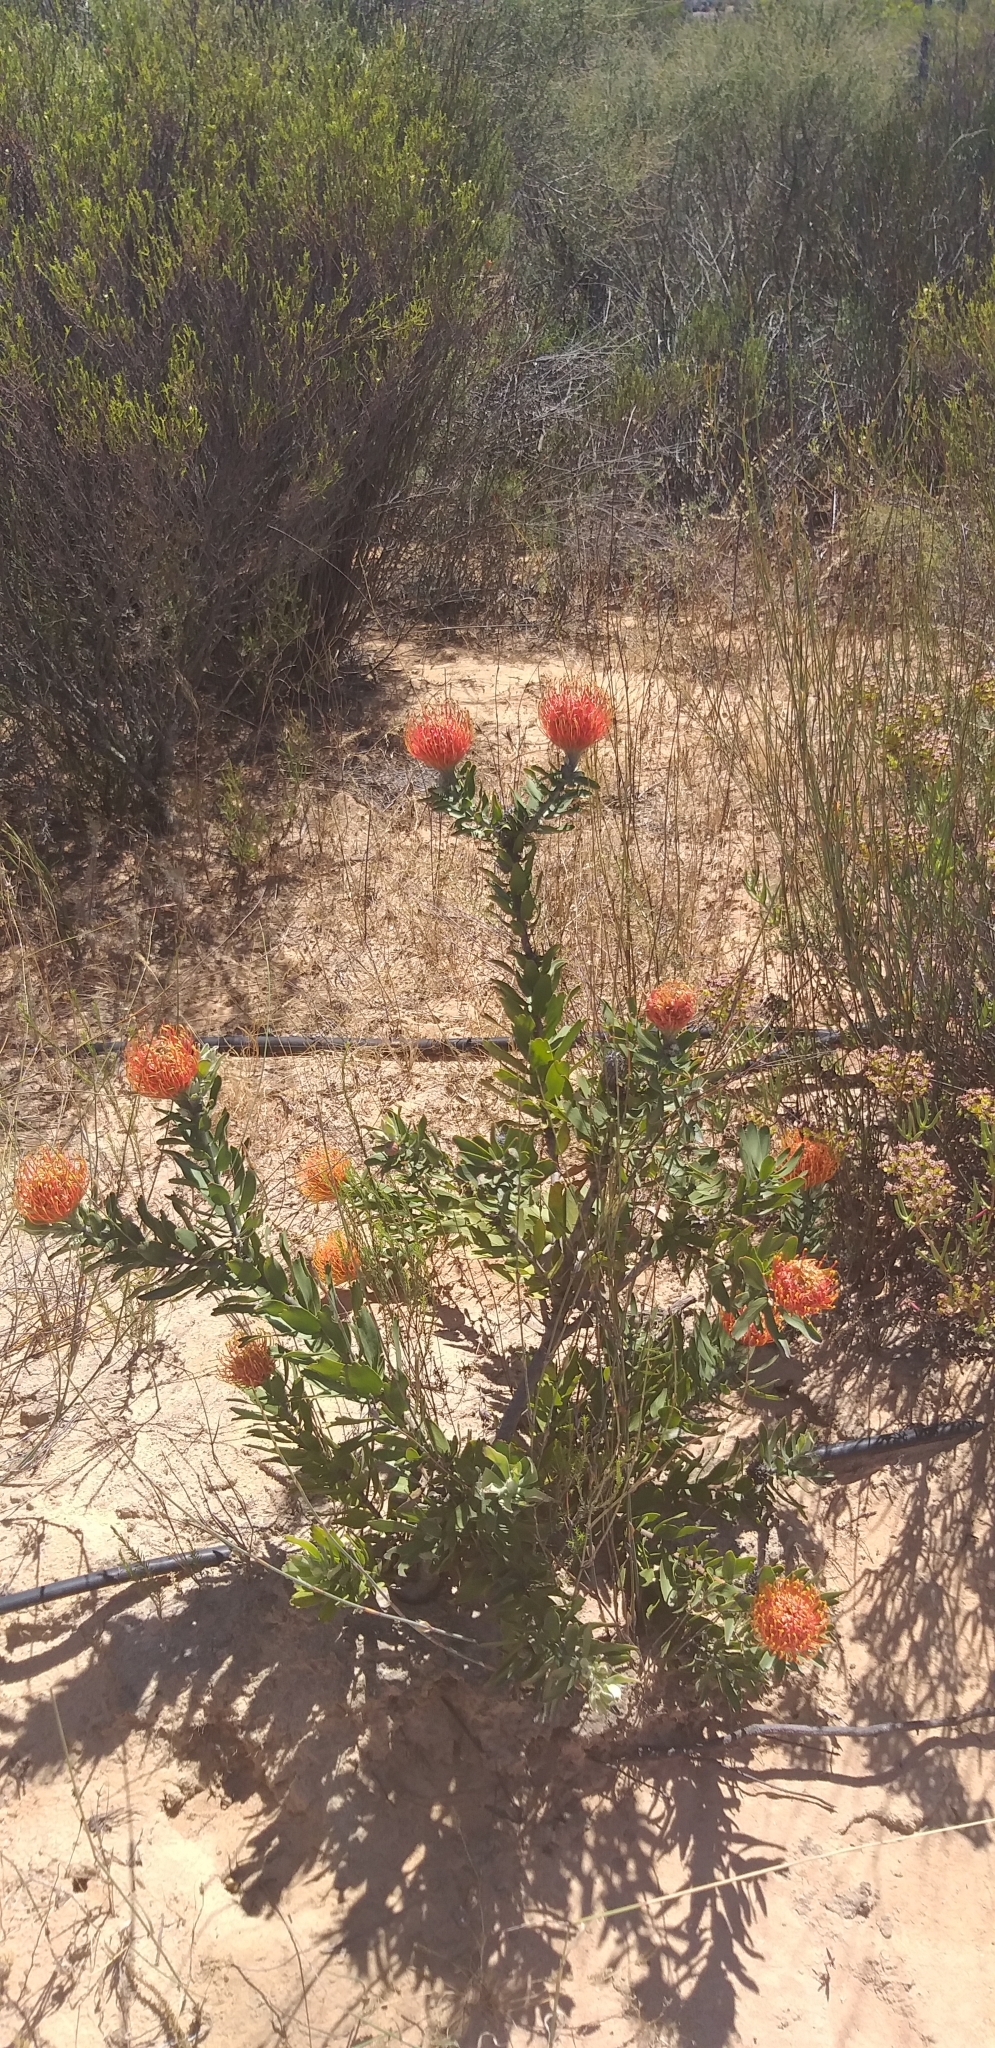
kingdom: Plantae
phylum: Tracheophyta
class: Magnoliopsida
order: Proteales
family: Proteaceae
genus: Leucospermum
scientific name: Leucospermum vestitum
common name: Silky-hair pincushion
